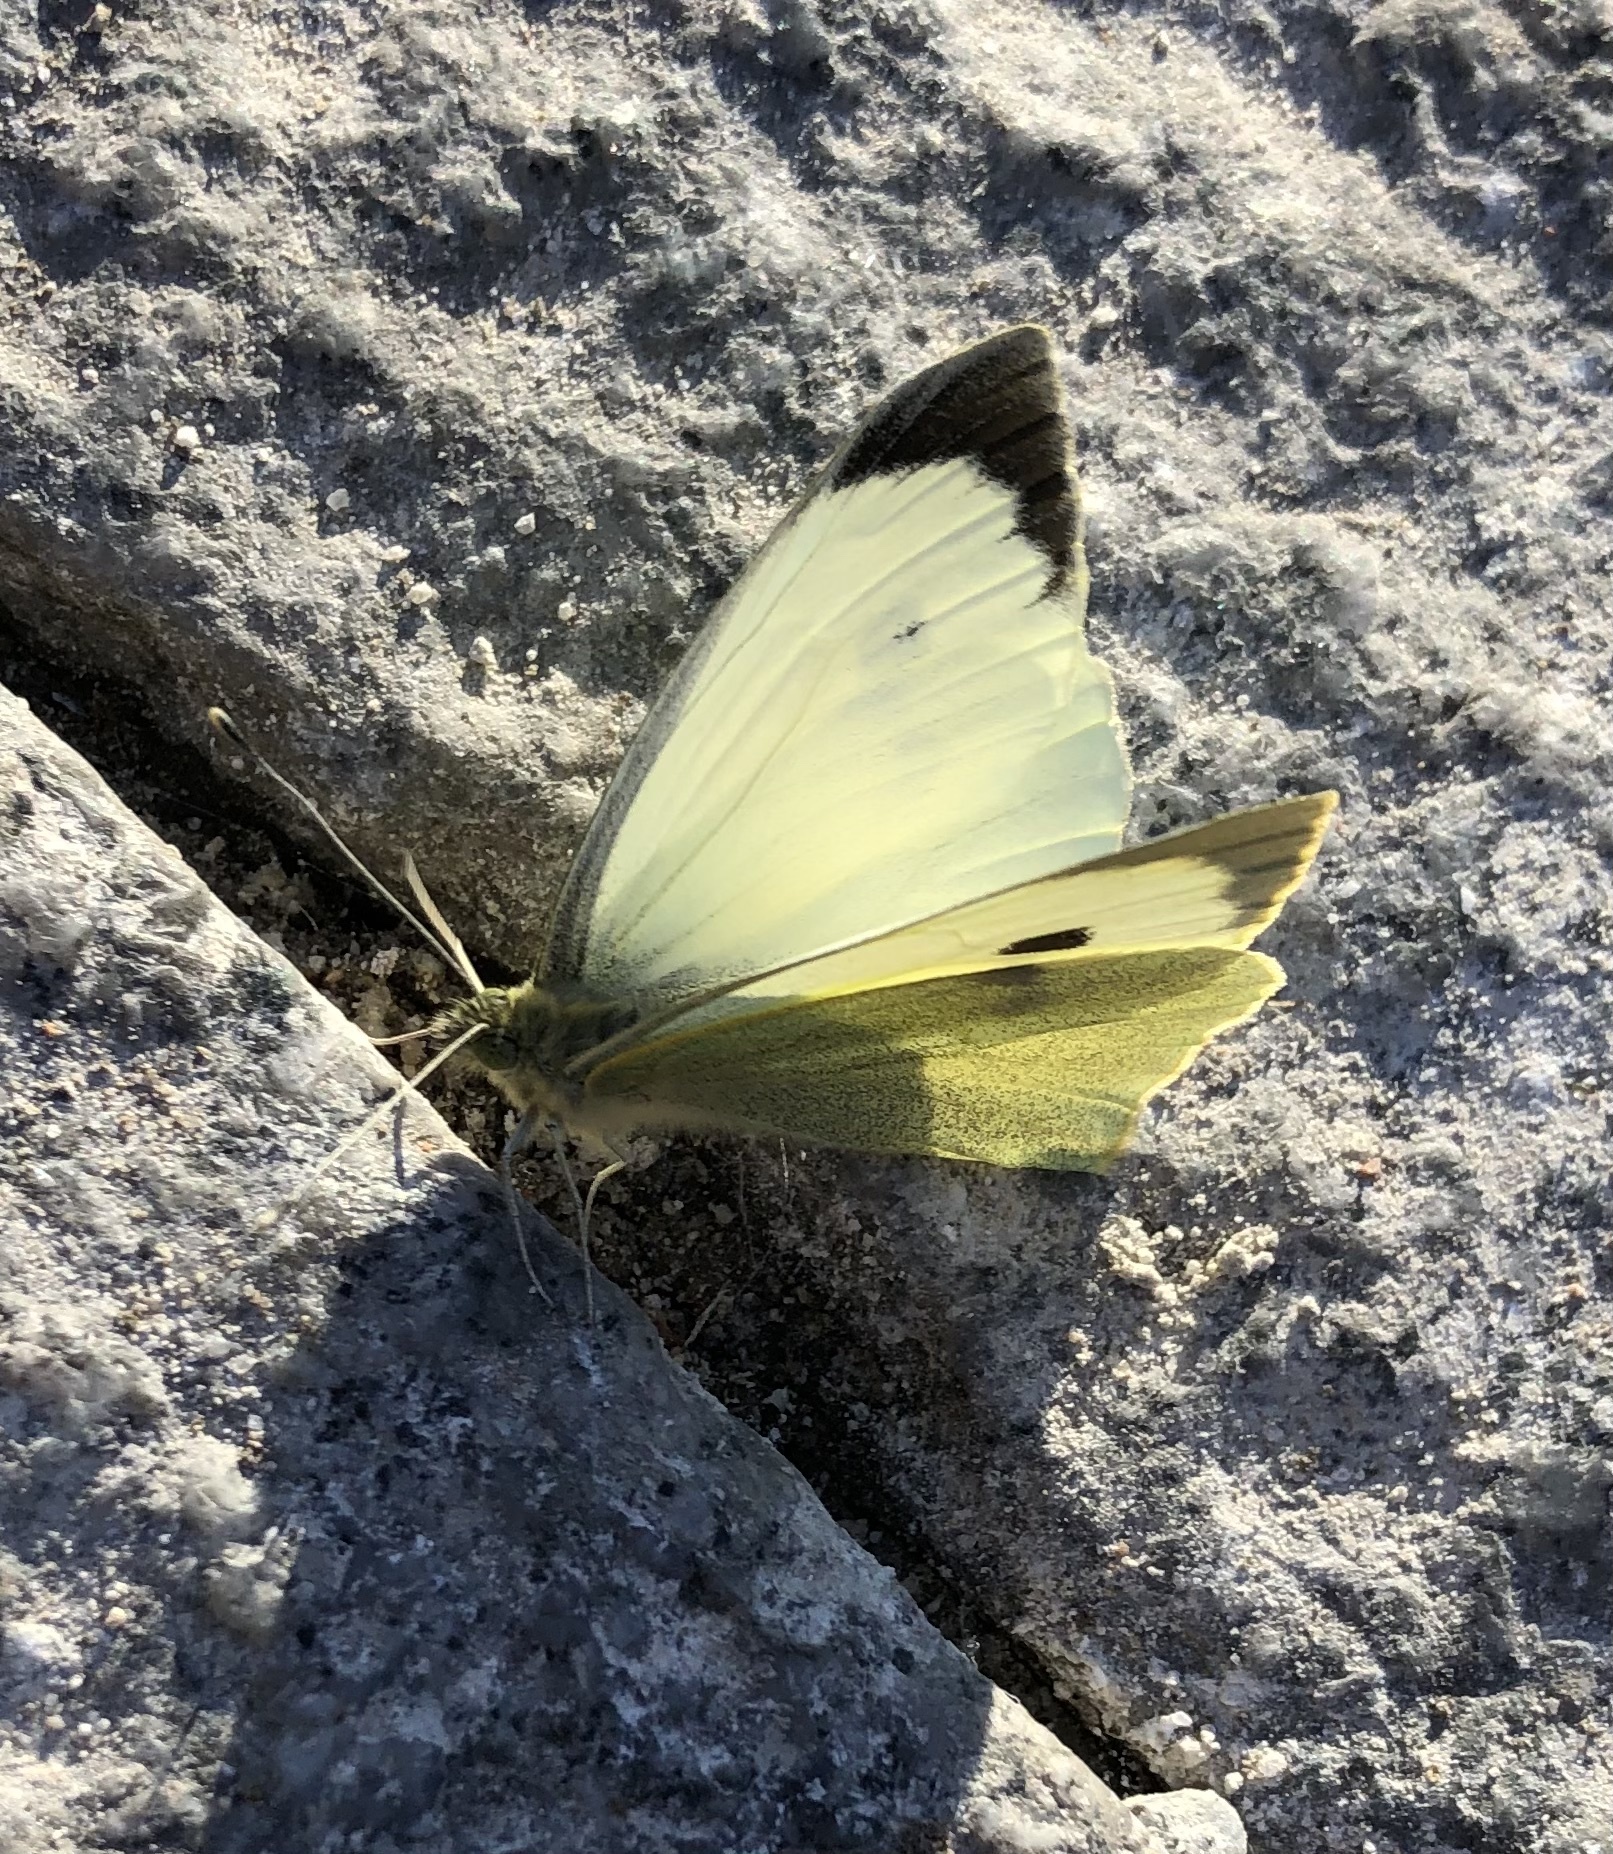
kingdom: Animalia
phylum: Arthropoda
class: Insecta
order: Lepidoptera
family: Pieridae
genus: Pieris
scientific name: Pieris brassicae
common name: Large white
